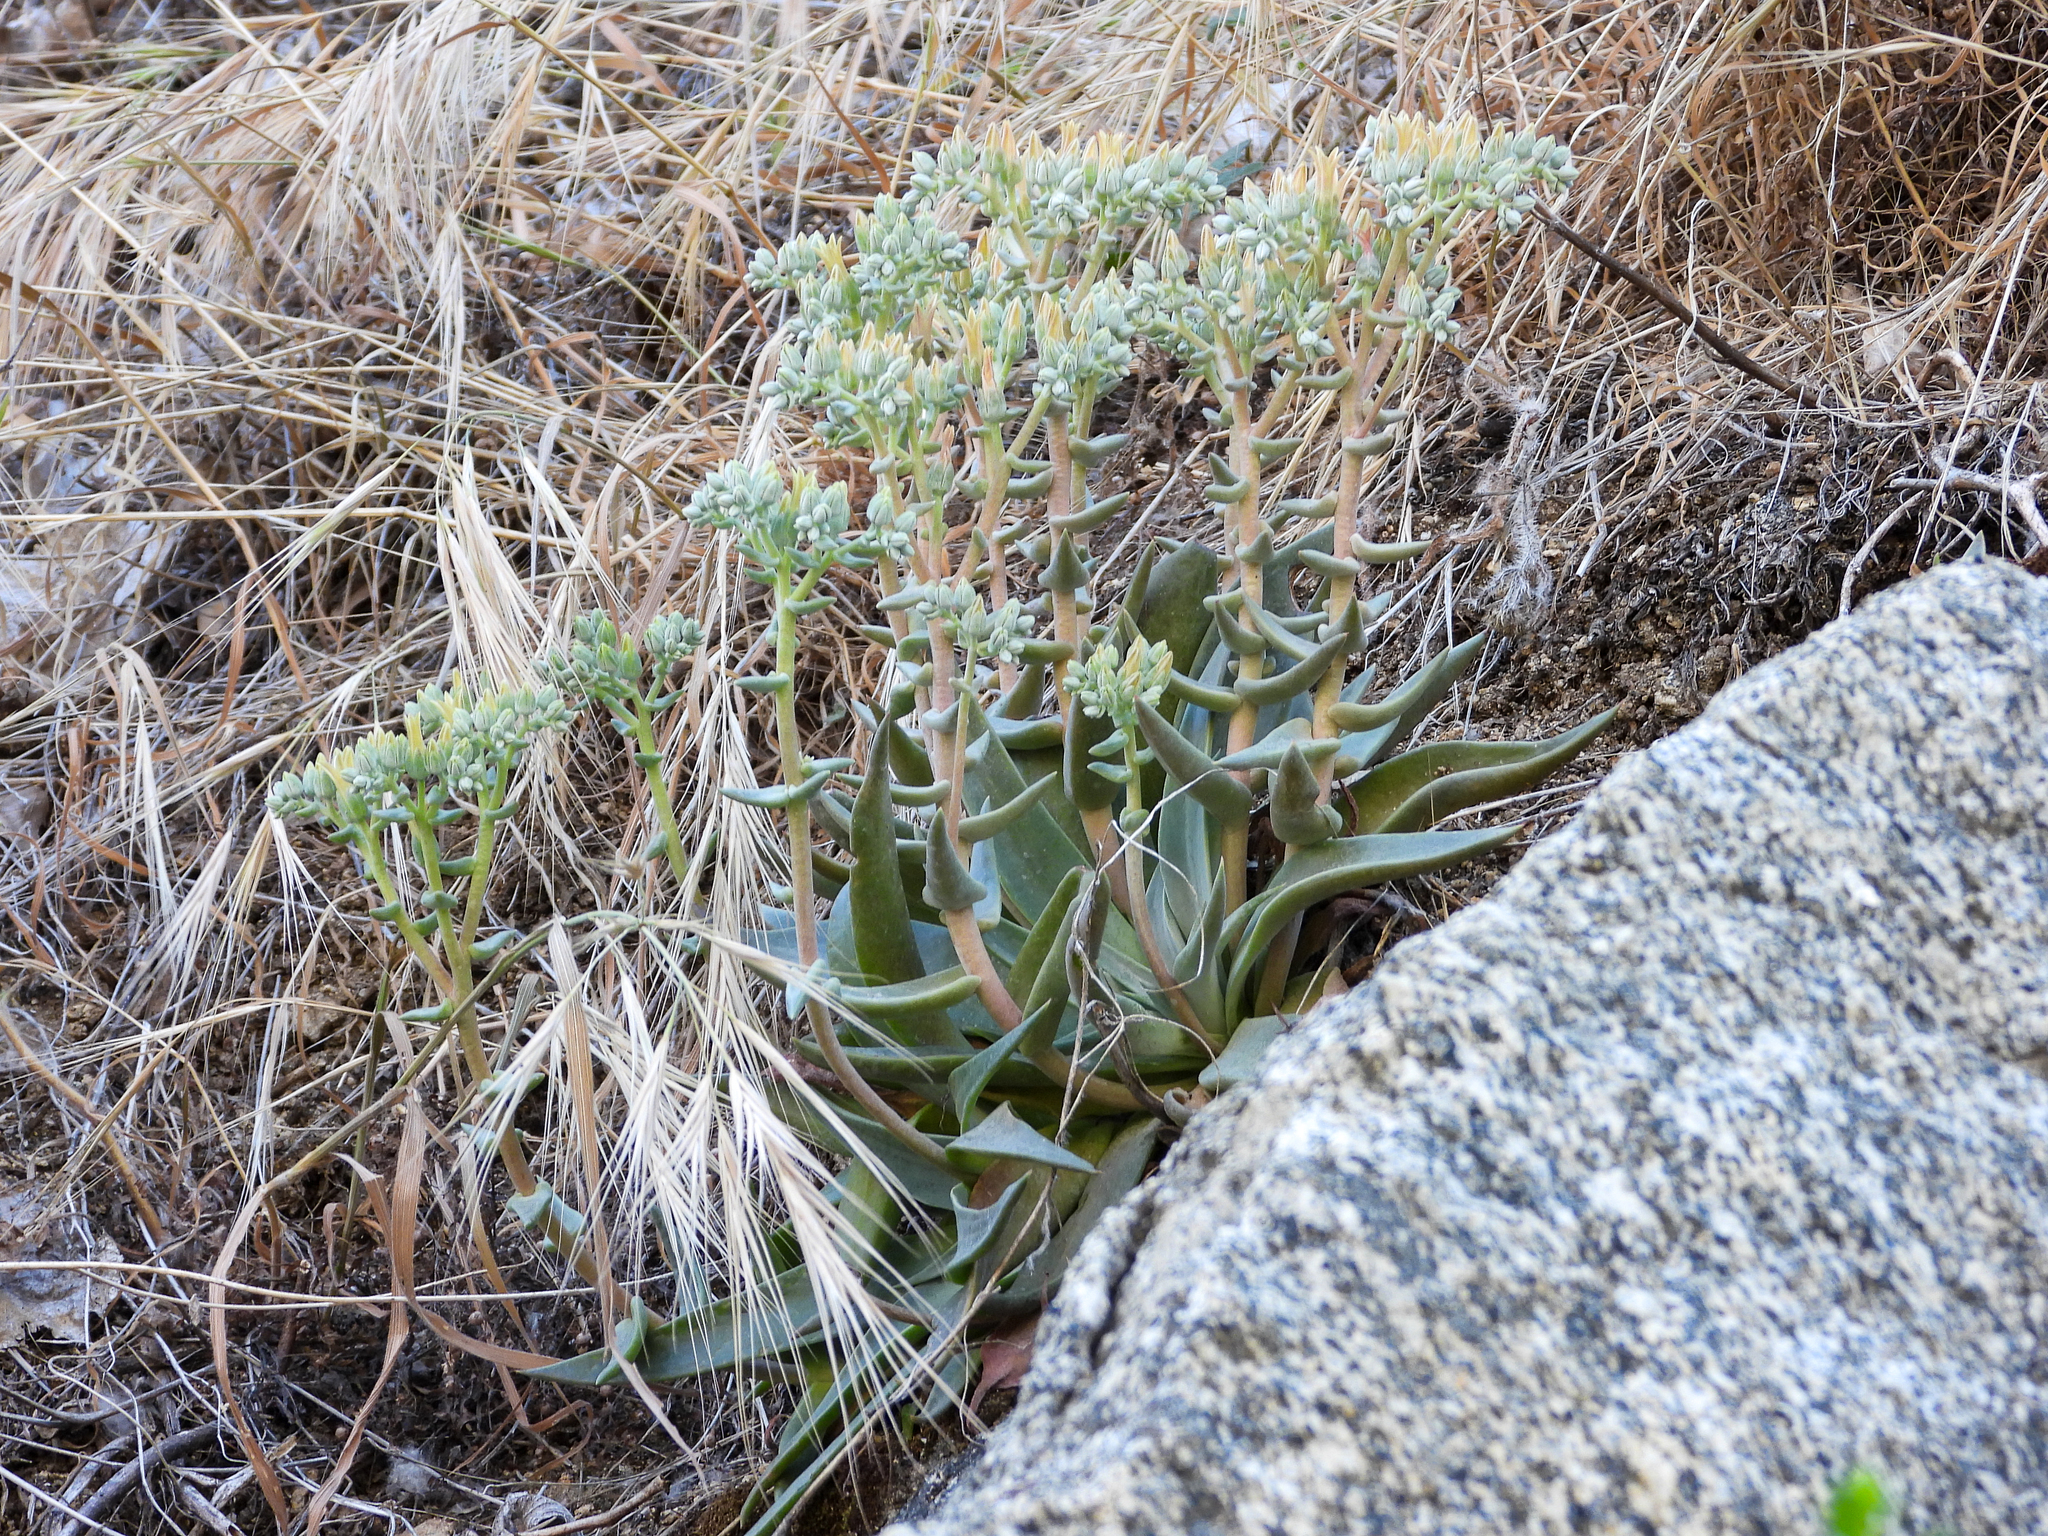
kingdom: Plantae
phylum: Tracheophyta
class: Magnoliopsida
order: Saxifragales
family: Crassulaceae
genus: Dudleya
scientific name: Dudleya abramsii
